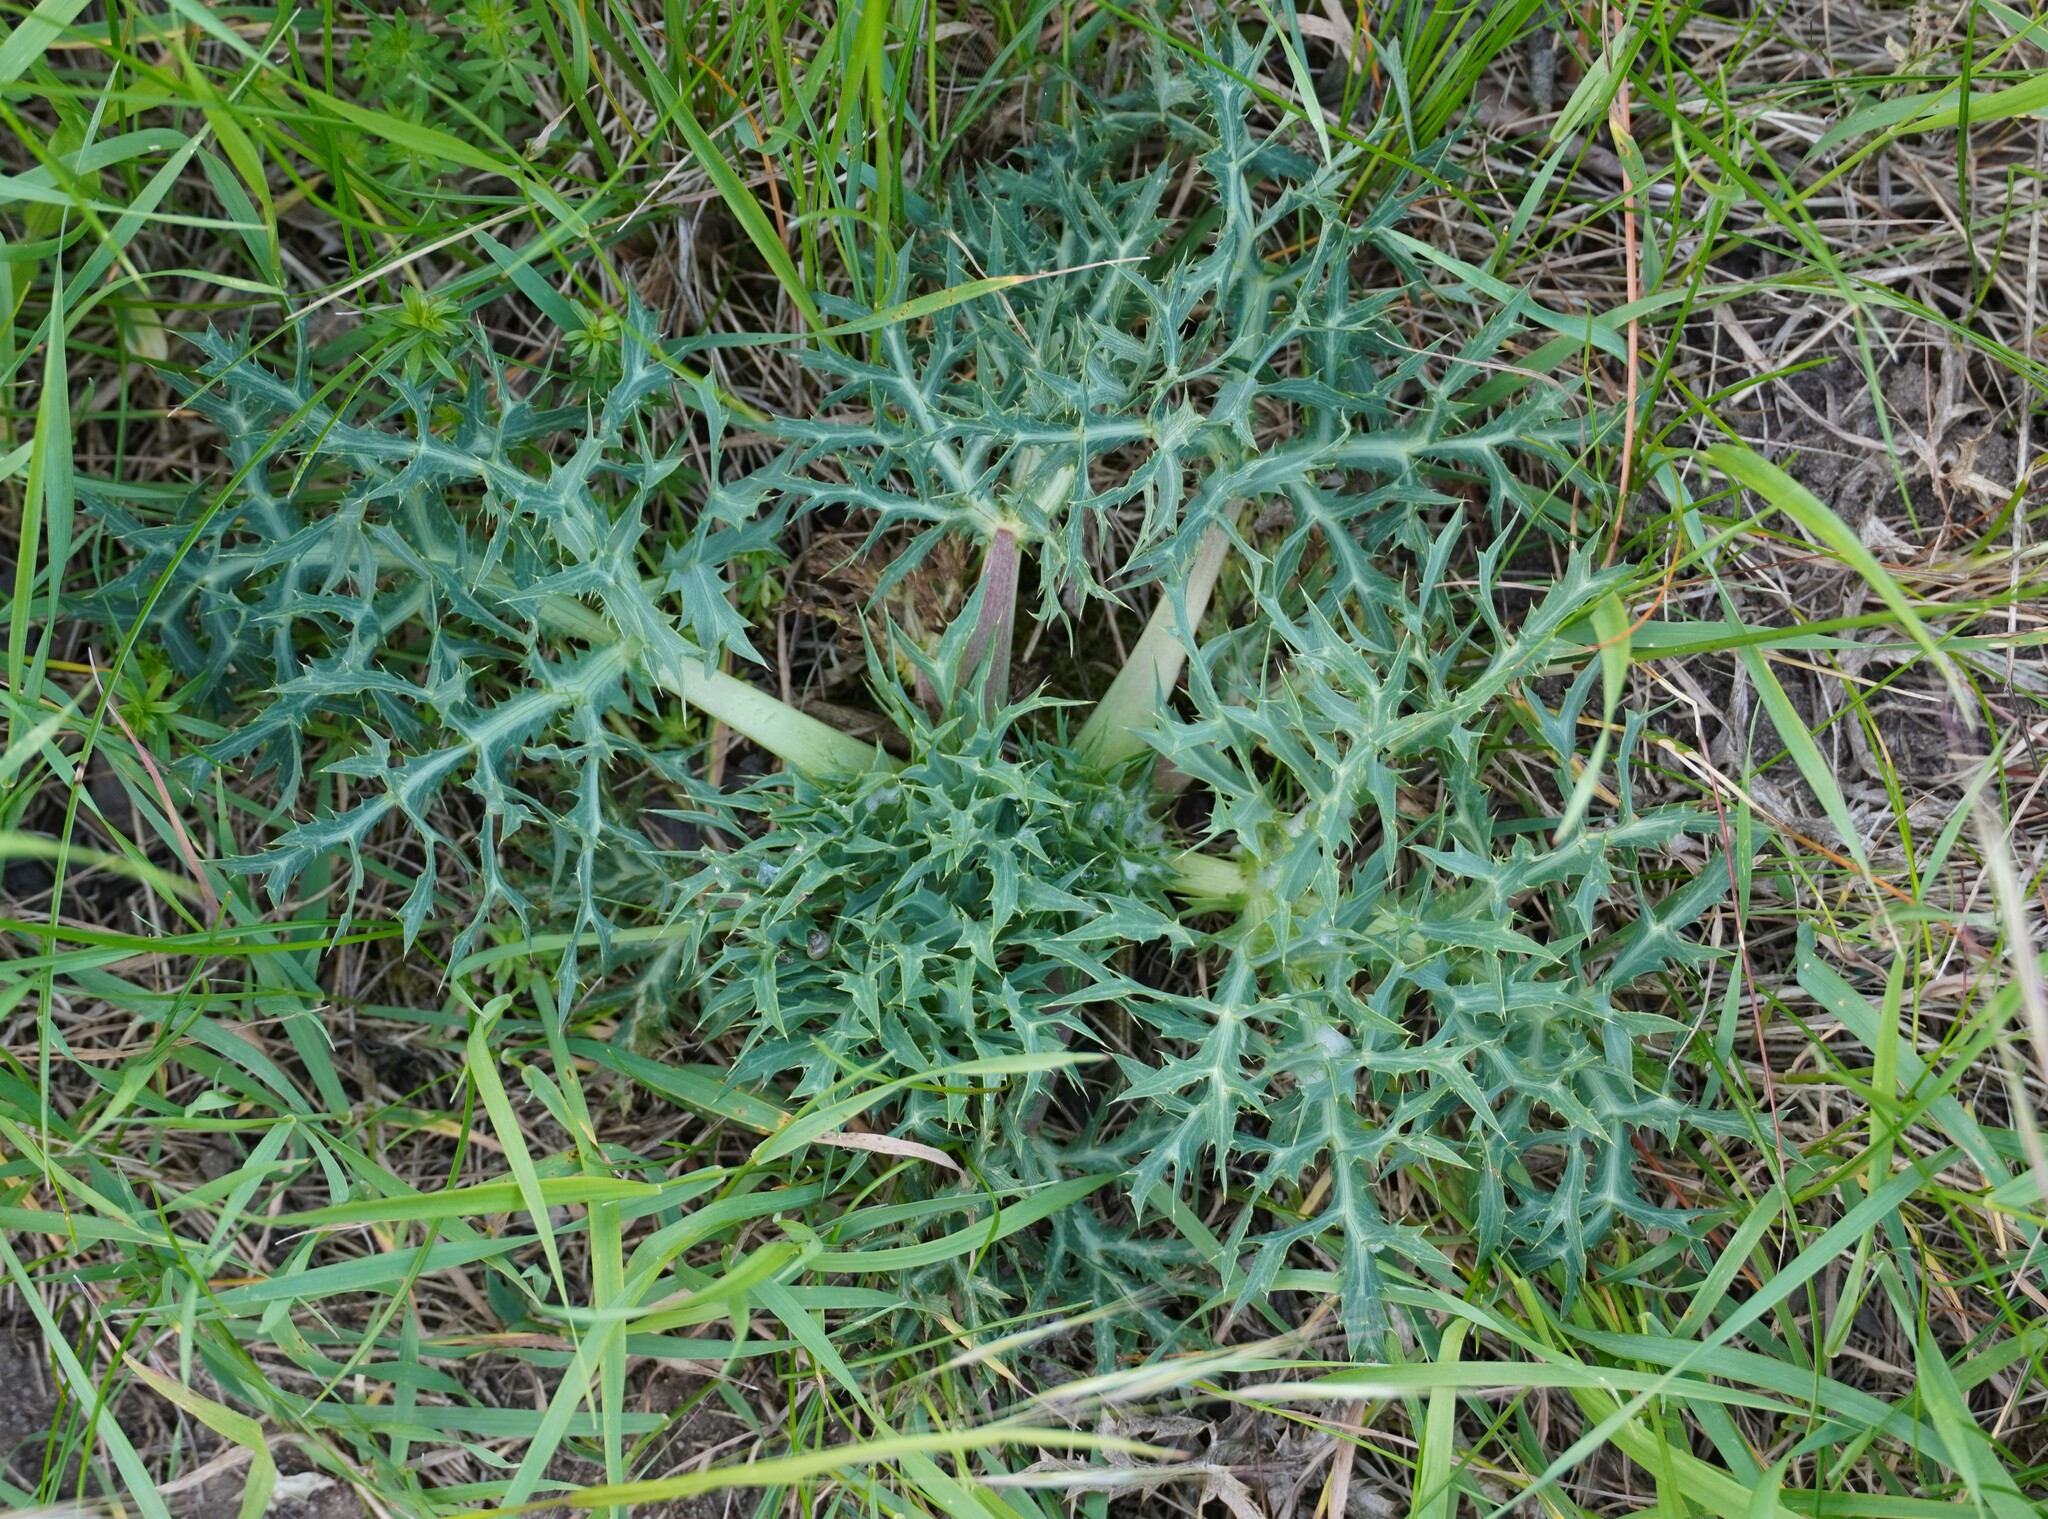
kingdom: Plantae
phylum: Tracheophyta
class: Magnoliopsida
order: Apiales
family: Apiaceae
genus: Eryngium
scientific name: Eryngium campestre
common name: Field eryngo
